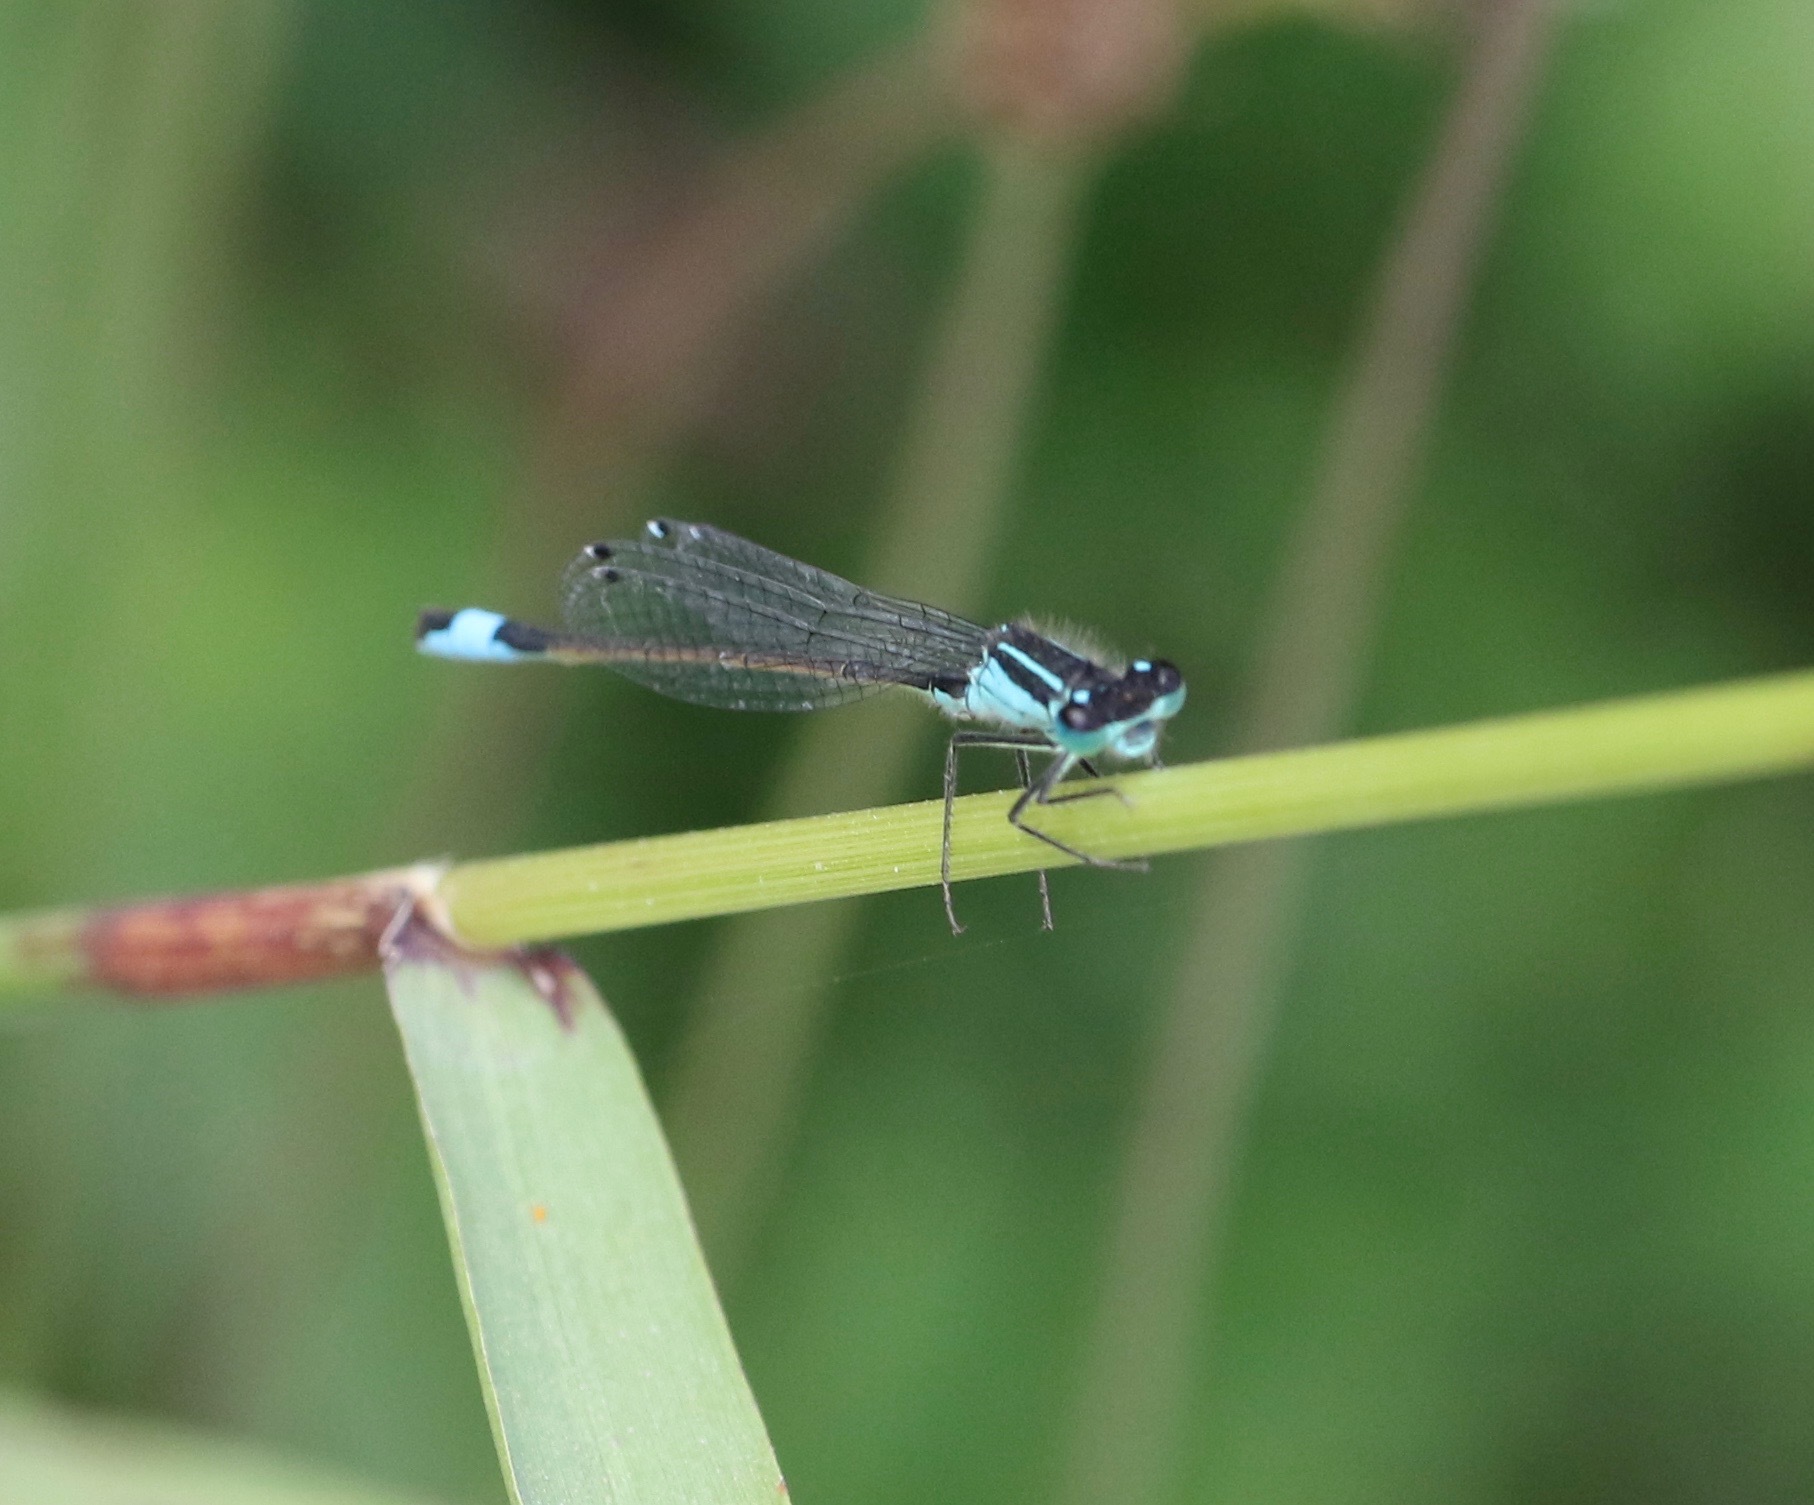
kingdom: Animalia
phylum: Arthropoda
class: Insecta
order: Odonata
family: Coenagrionidae
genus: Ischnura
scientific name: Ischnura elegans
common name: Blue-tailed damselfly
